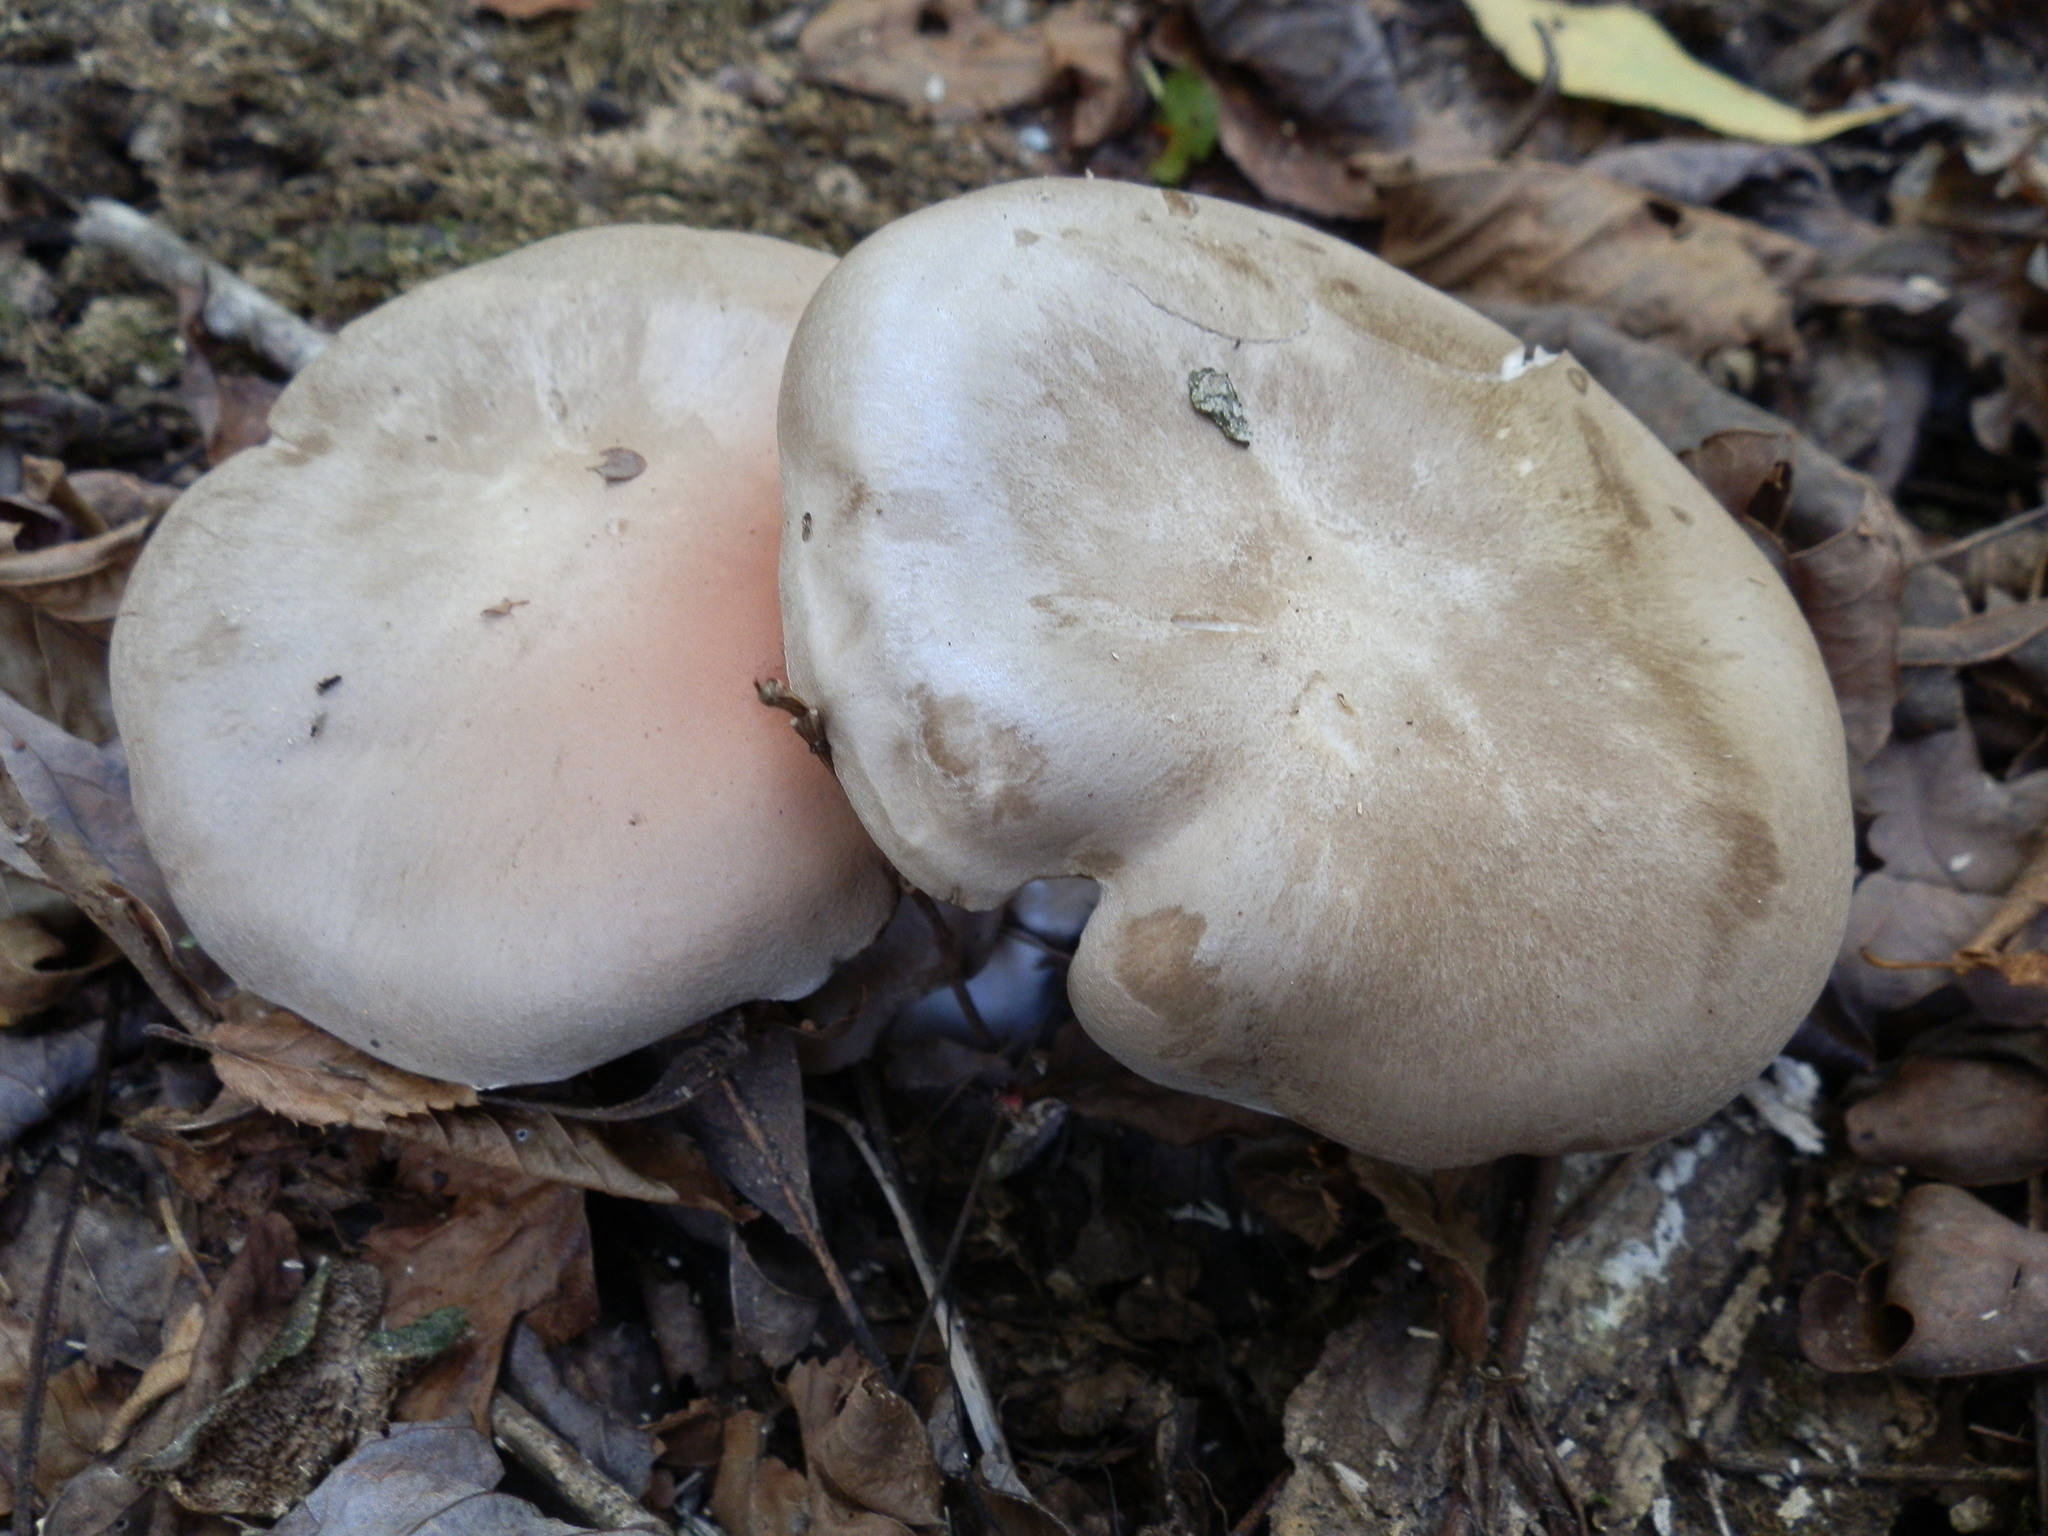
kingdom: Fungi
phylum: Basidiomycota
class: Agaricomycetes
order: Agaricales
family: Entolomataceae
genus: Entoloma
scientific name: Entoloma abortivum
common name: Aborted entoloma
